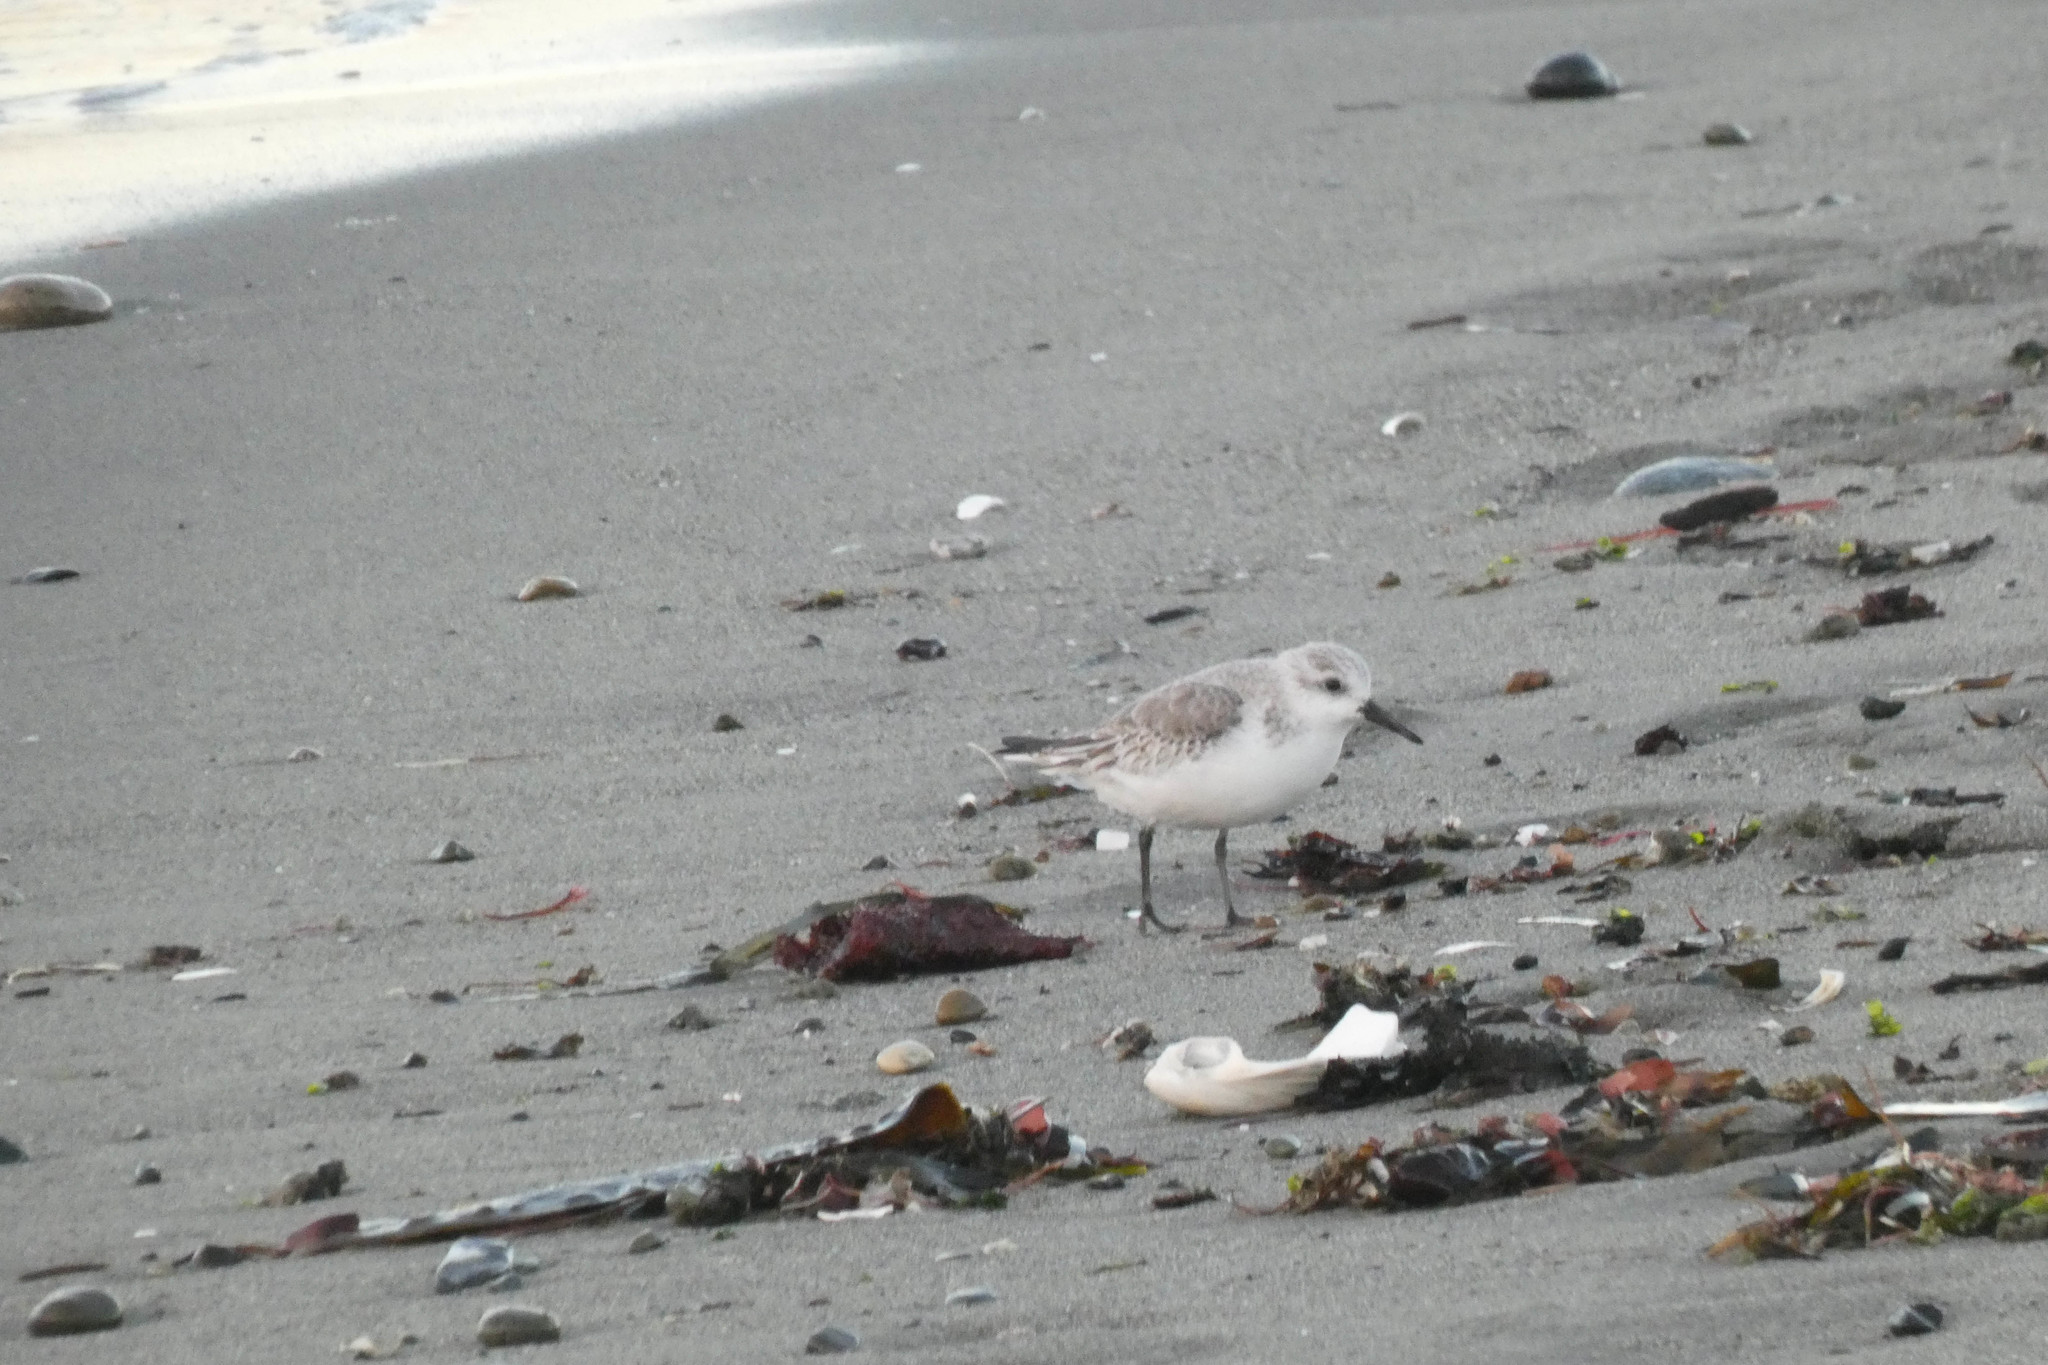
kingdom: Animalia
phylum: Chordata
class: Aves
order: Charadriiformes
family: Scolopacidae
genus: Calidris
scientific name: Calidris alba
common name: Sanderling
